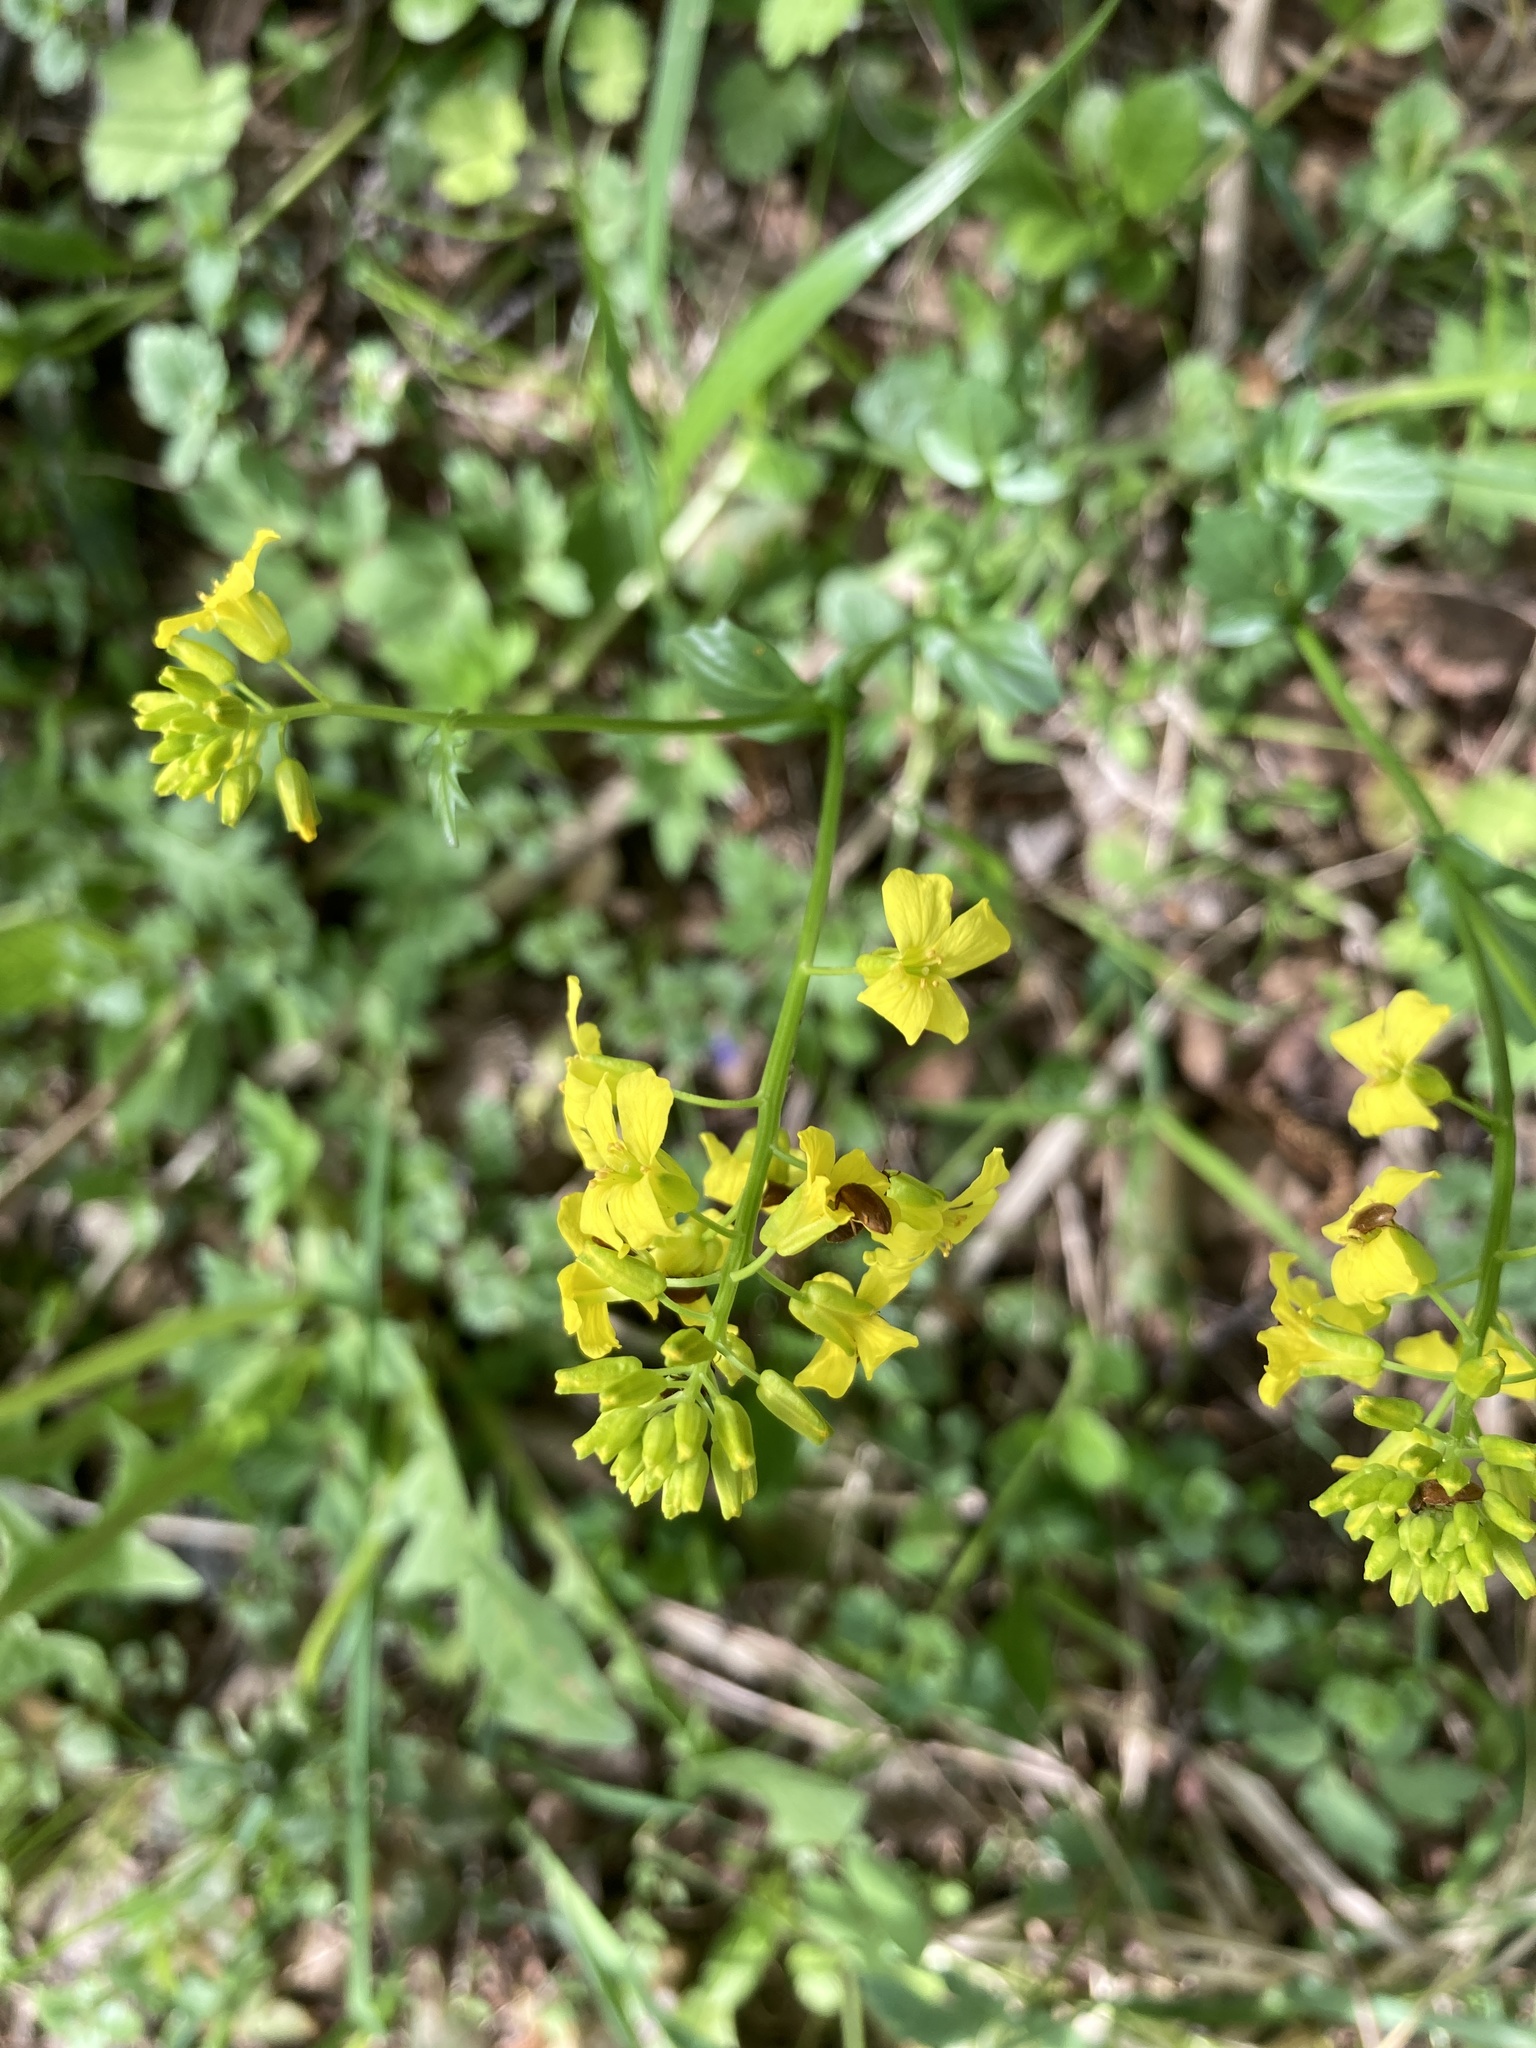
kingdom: Plantae
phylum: Tracheophyta
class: Magnoliopsida
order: Brassicales
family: Brassicaceae
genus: Barbarea
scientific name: Barbarea vulgaris
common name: Cressy-greens
